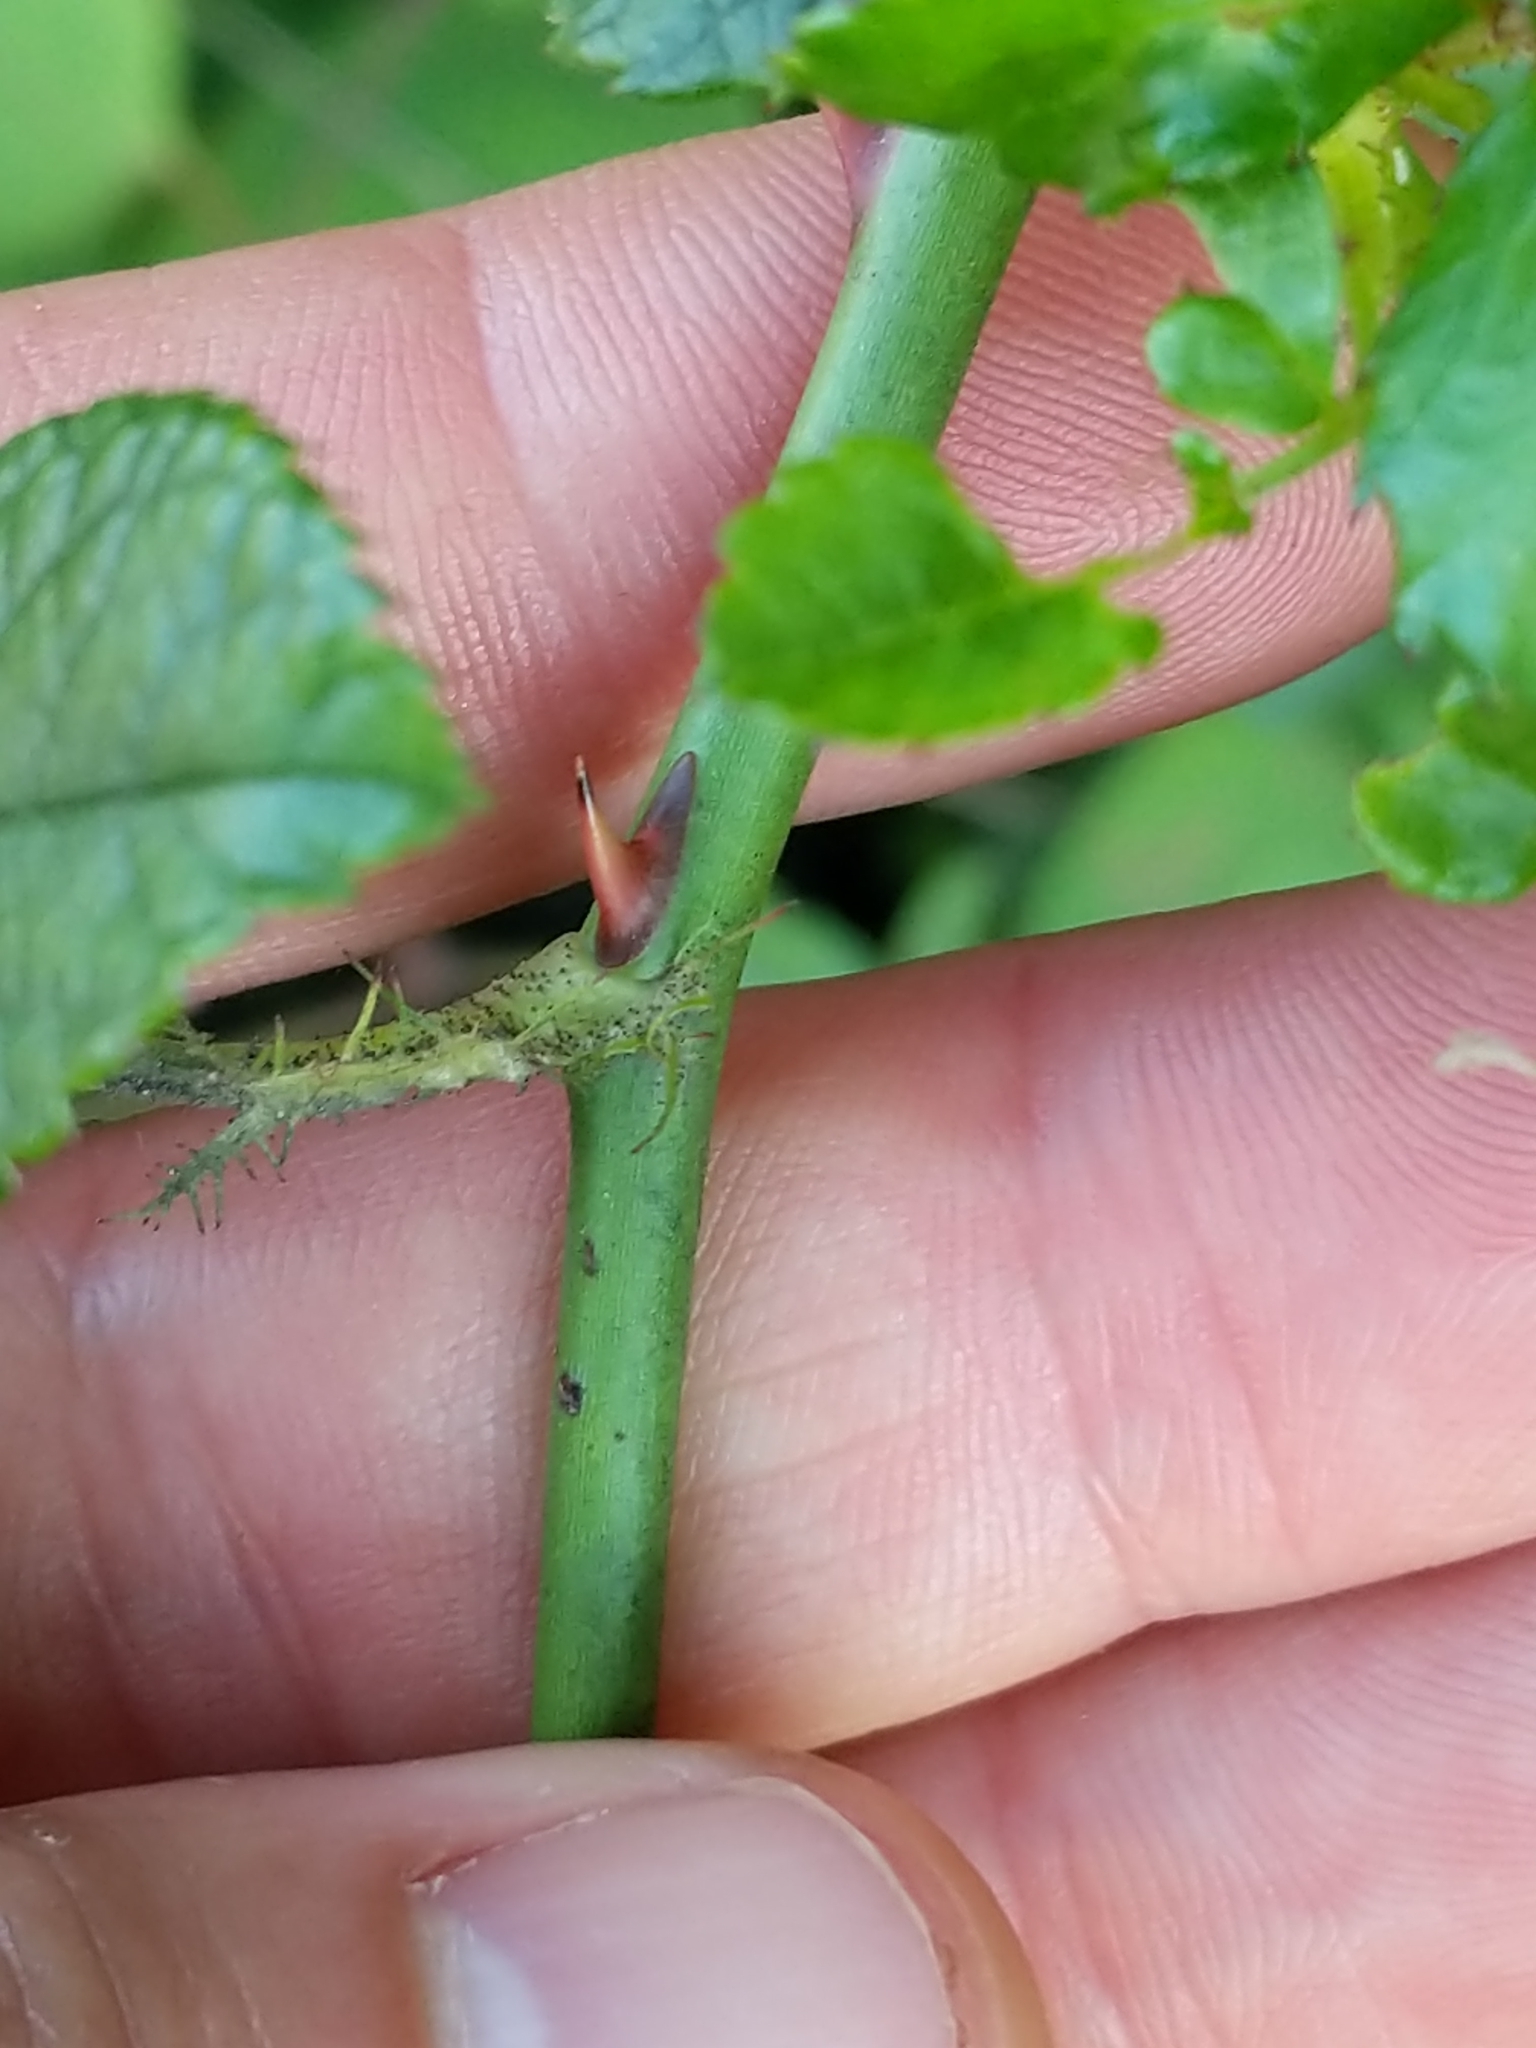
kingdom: Plantae
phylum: Tracheophyta
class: Magnoliopsida
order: Rosales
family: Rosaceae
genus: Rosa
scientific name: Rosa multiflora
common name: Multiflora rose
